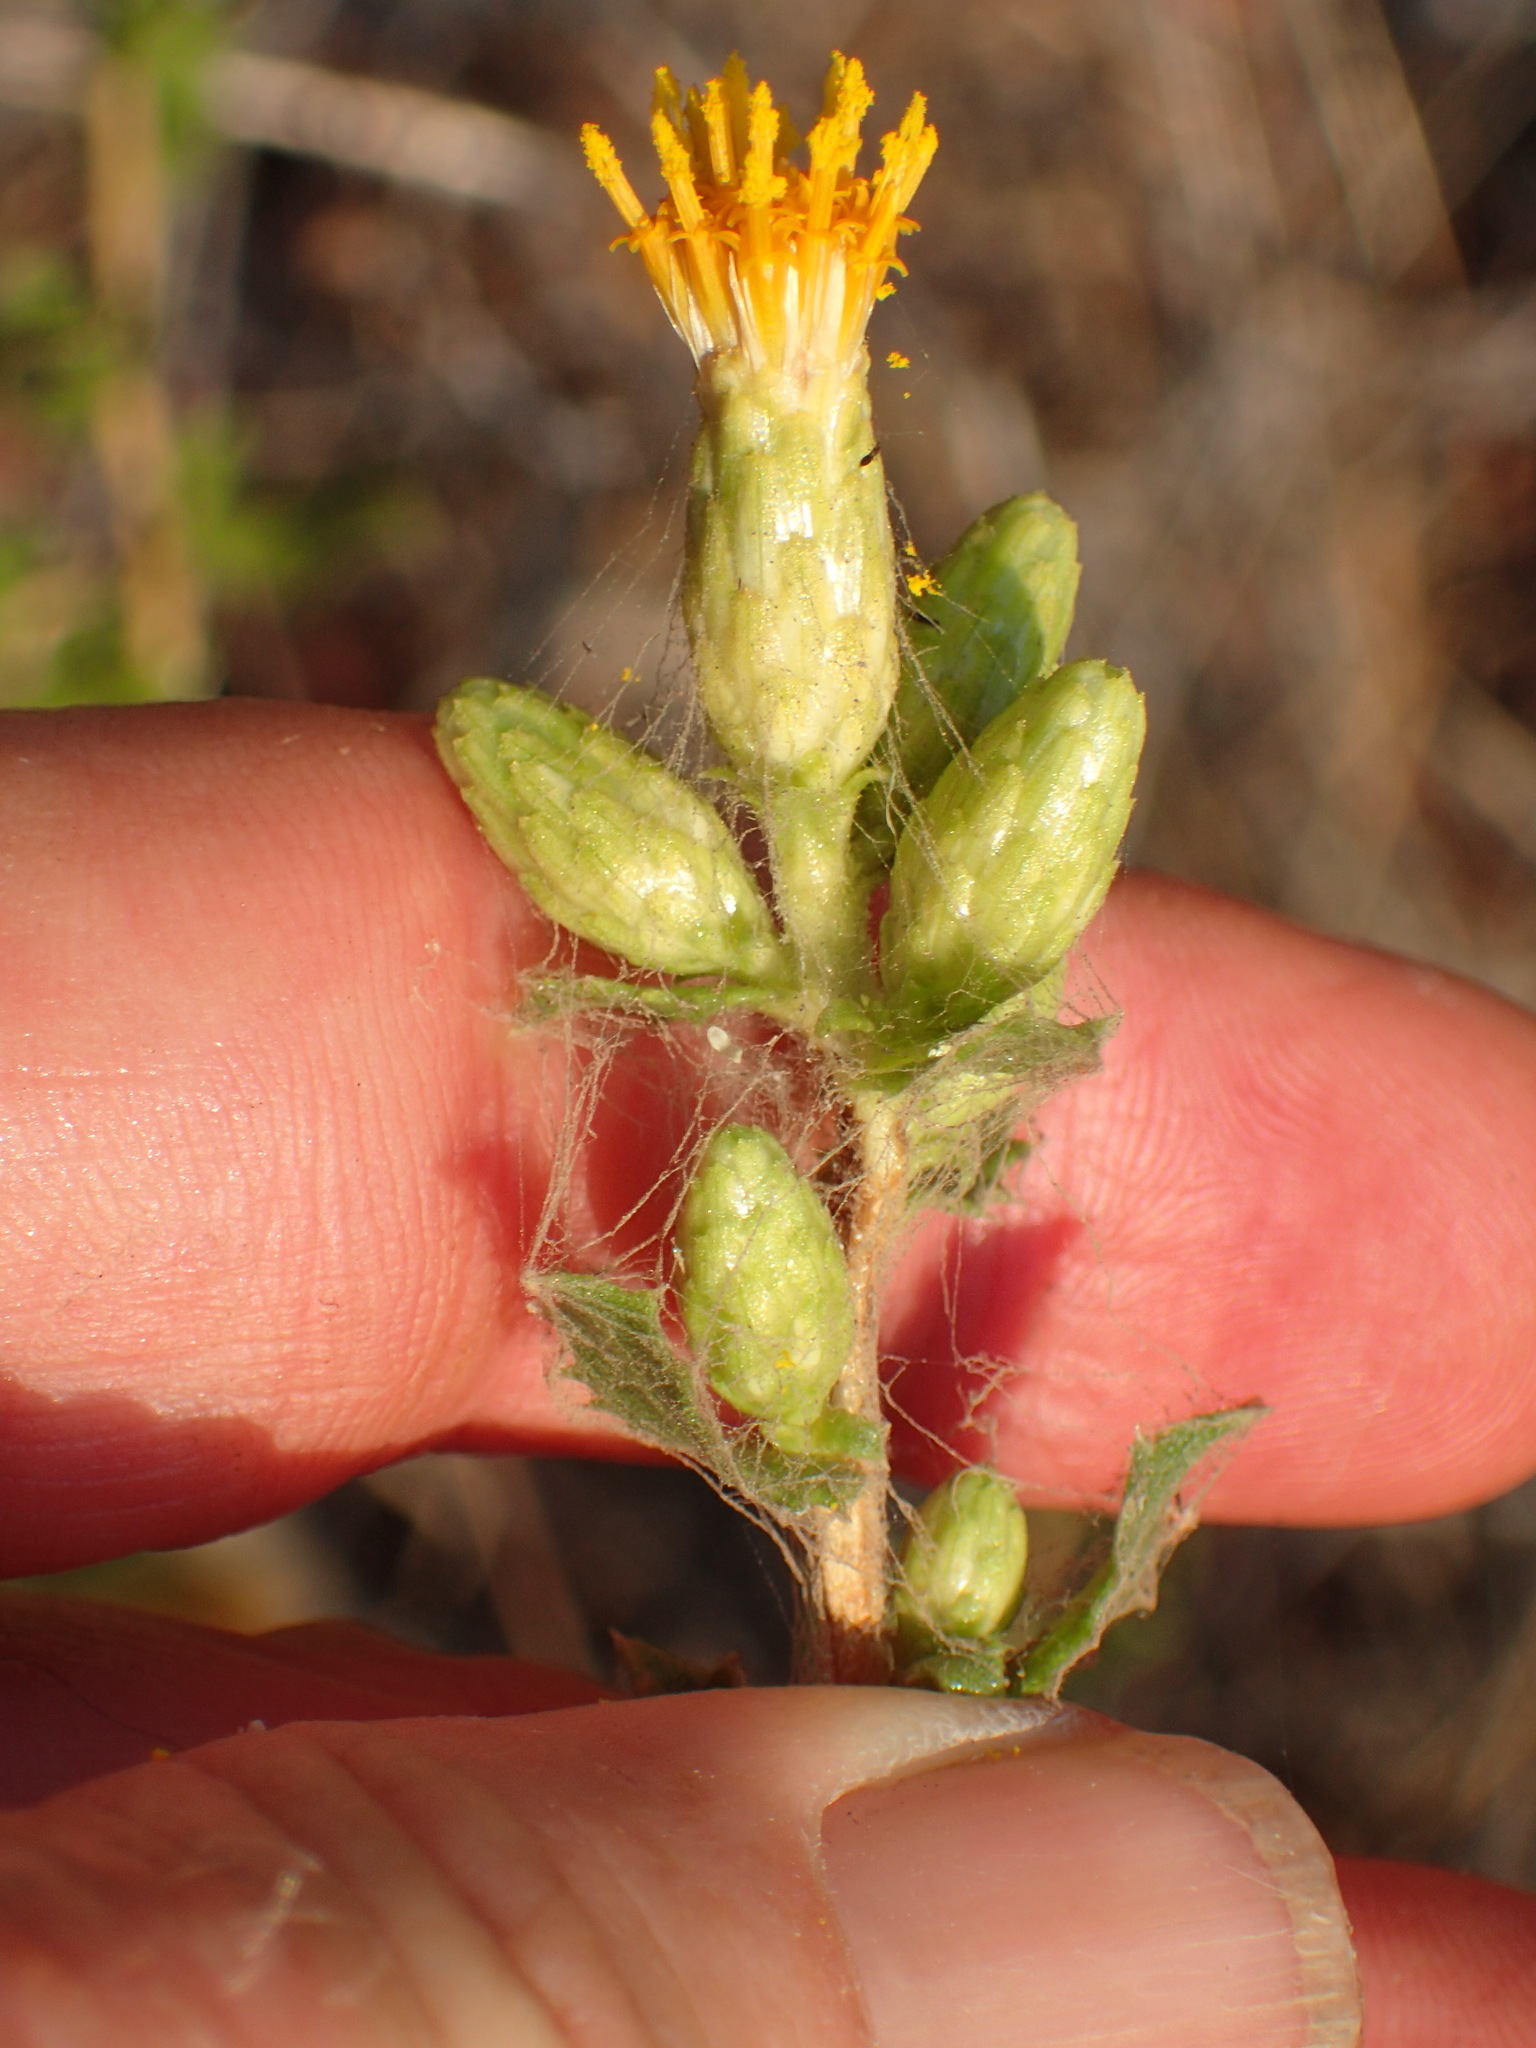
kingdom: Plantae
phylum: Tracheophyta
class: Magnoliopsida
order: Asterales
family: Asteraceae
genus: Hazardia
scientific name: Hazardia squarrosa
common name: Saw-tooth goldenbush
